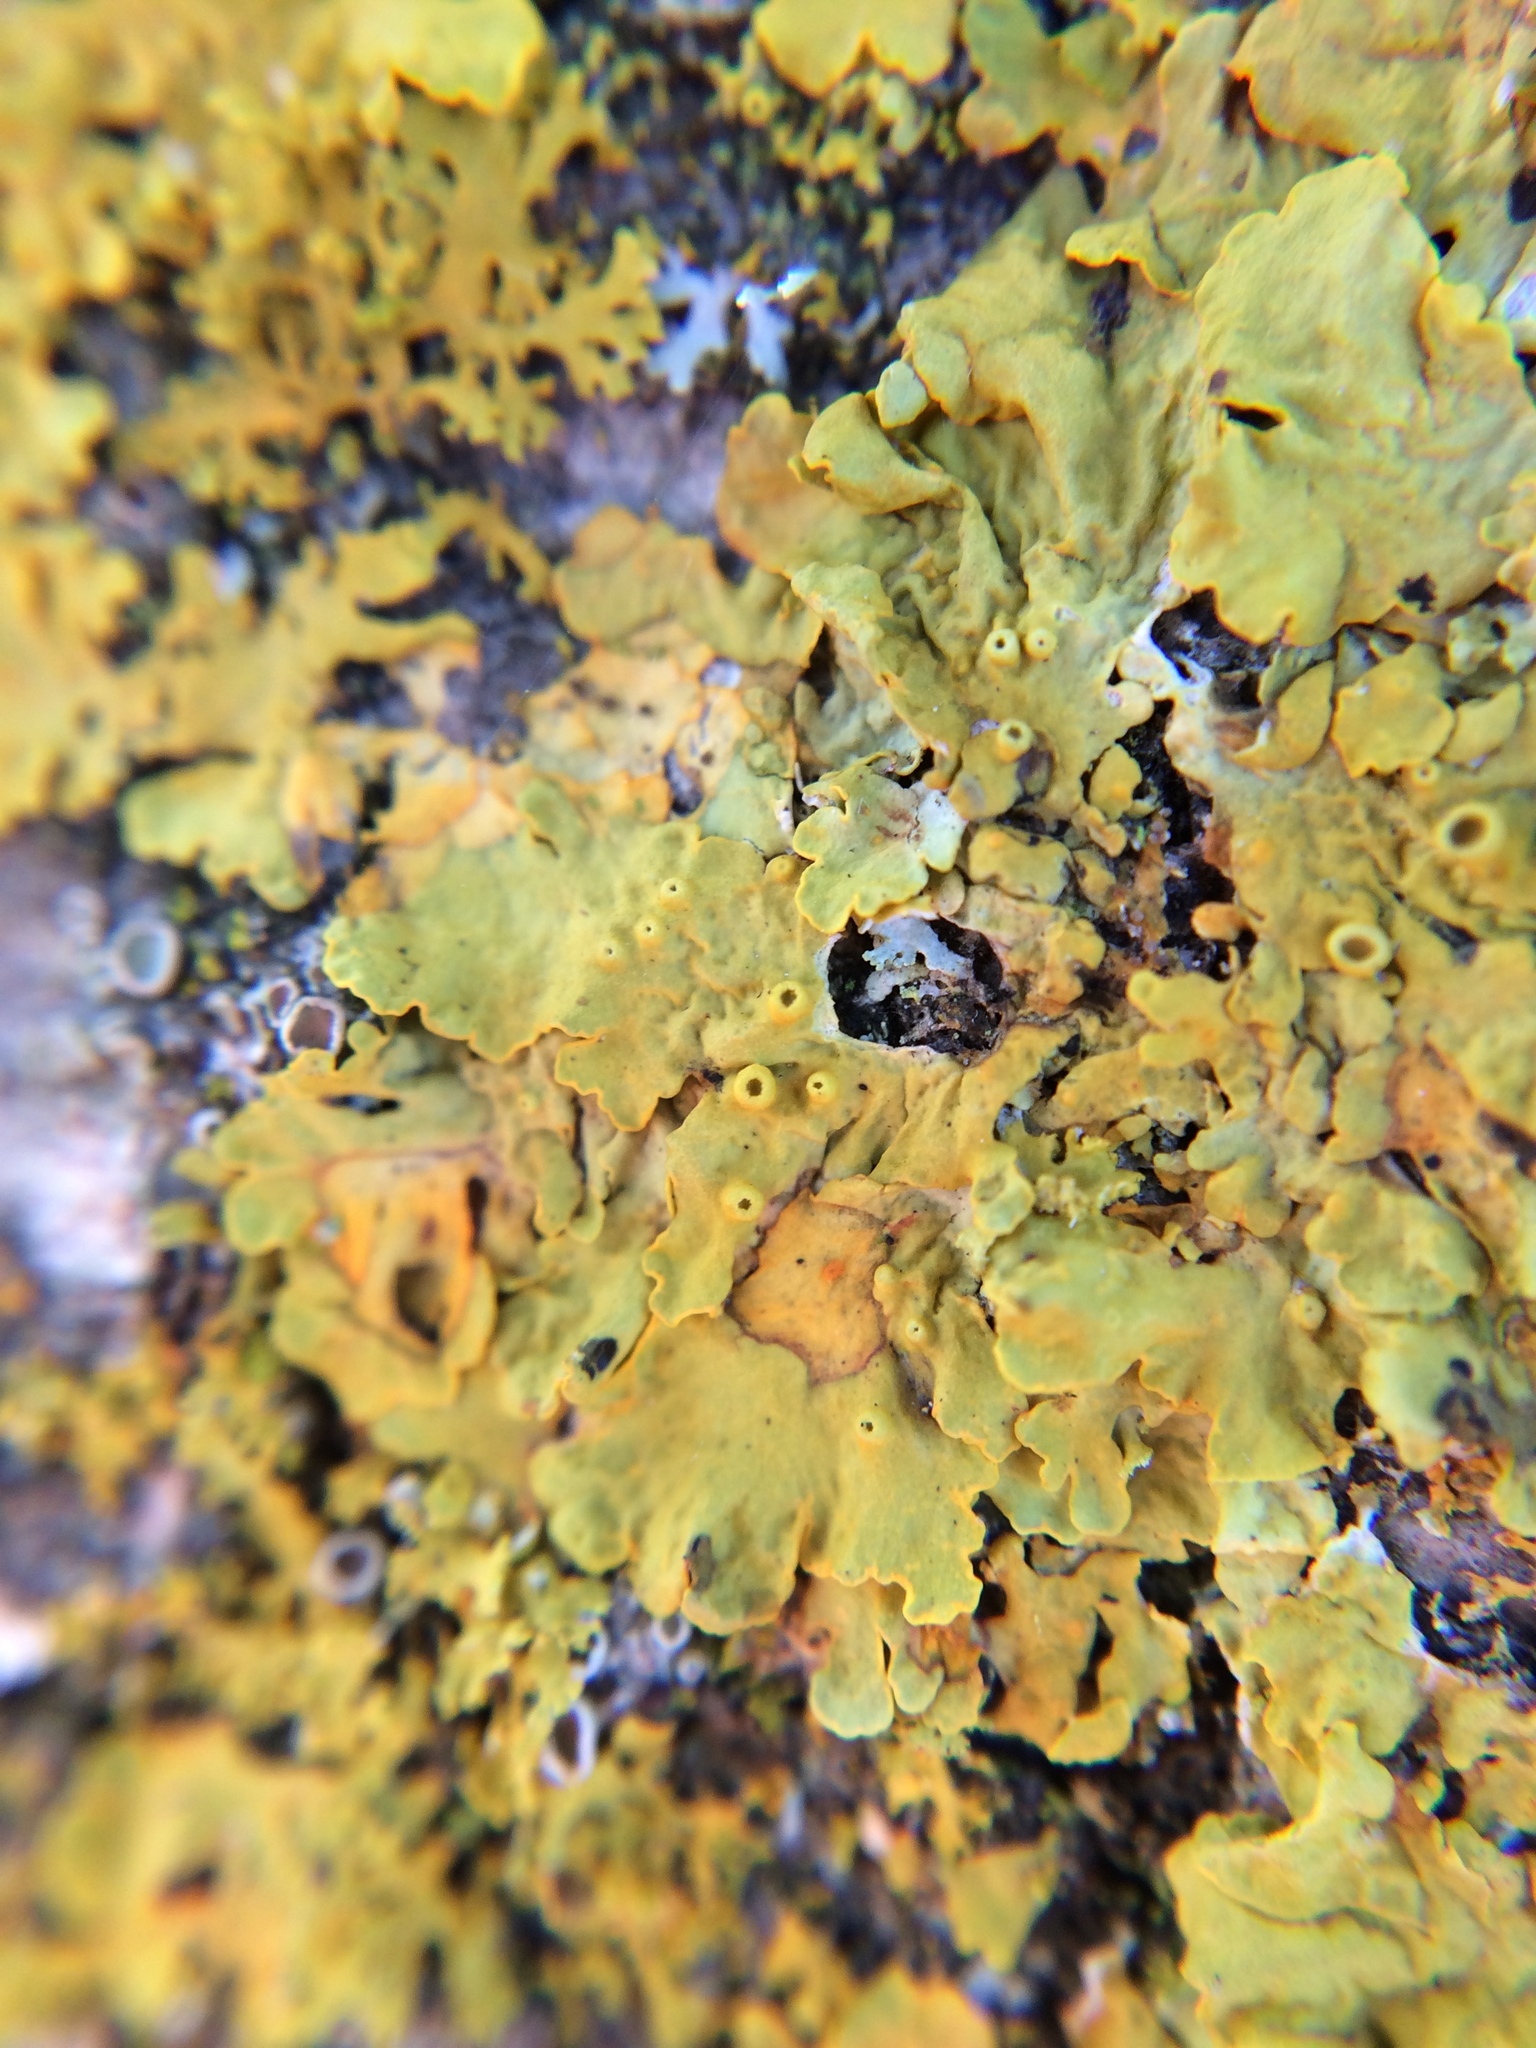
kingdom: Fungi
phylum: Ascomycota
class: Lecanoromycetes
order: Teloschistales
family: Teloschistaceae
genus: Xanthoria
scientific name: Xanthoria parietina
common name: Common orange lichen
